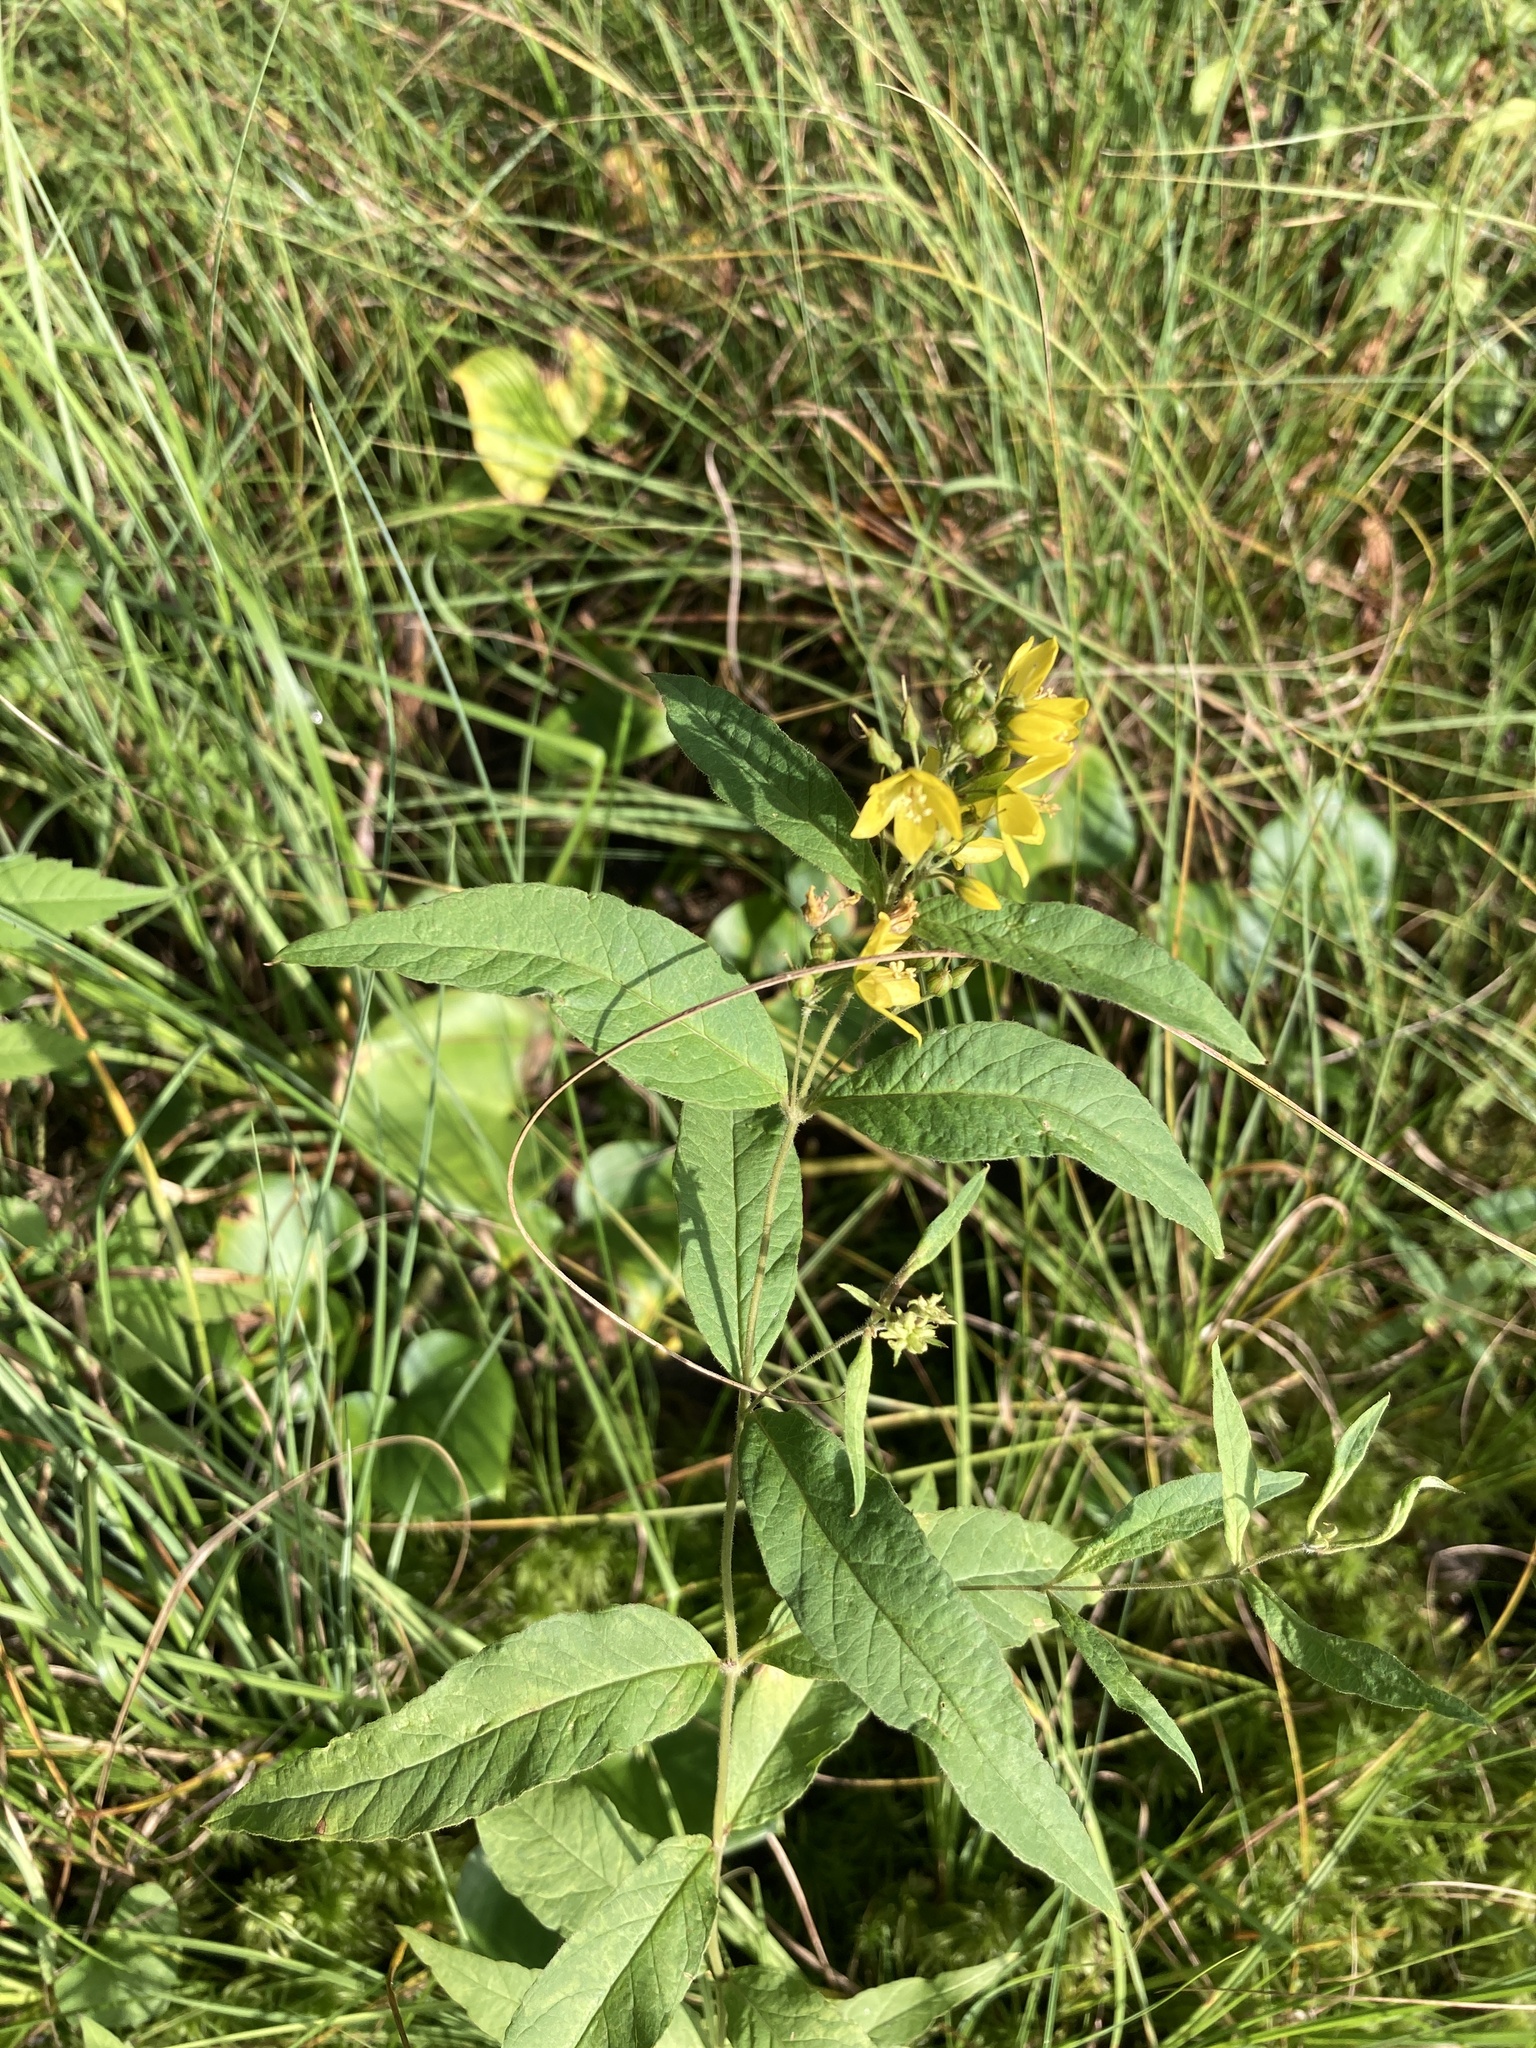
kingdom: Plantae
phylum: Tracheophyta
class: Magnoliopsida
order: Ericales
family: Primulaceae
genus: Lysimachia
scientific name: Lysimachia vulgaris
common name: Yellow loosestrife
